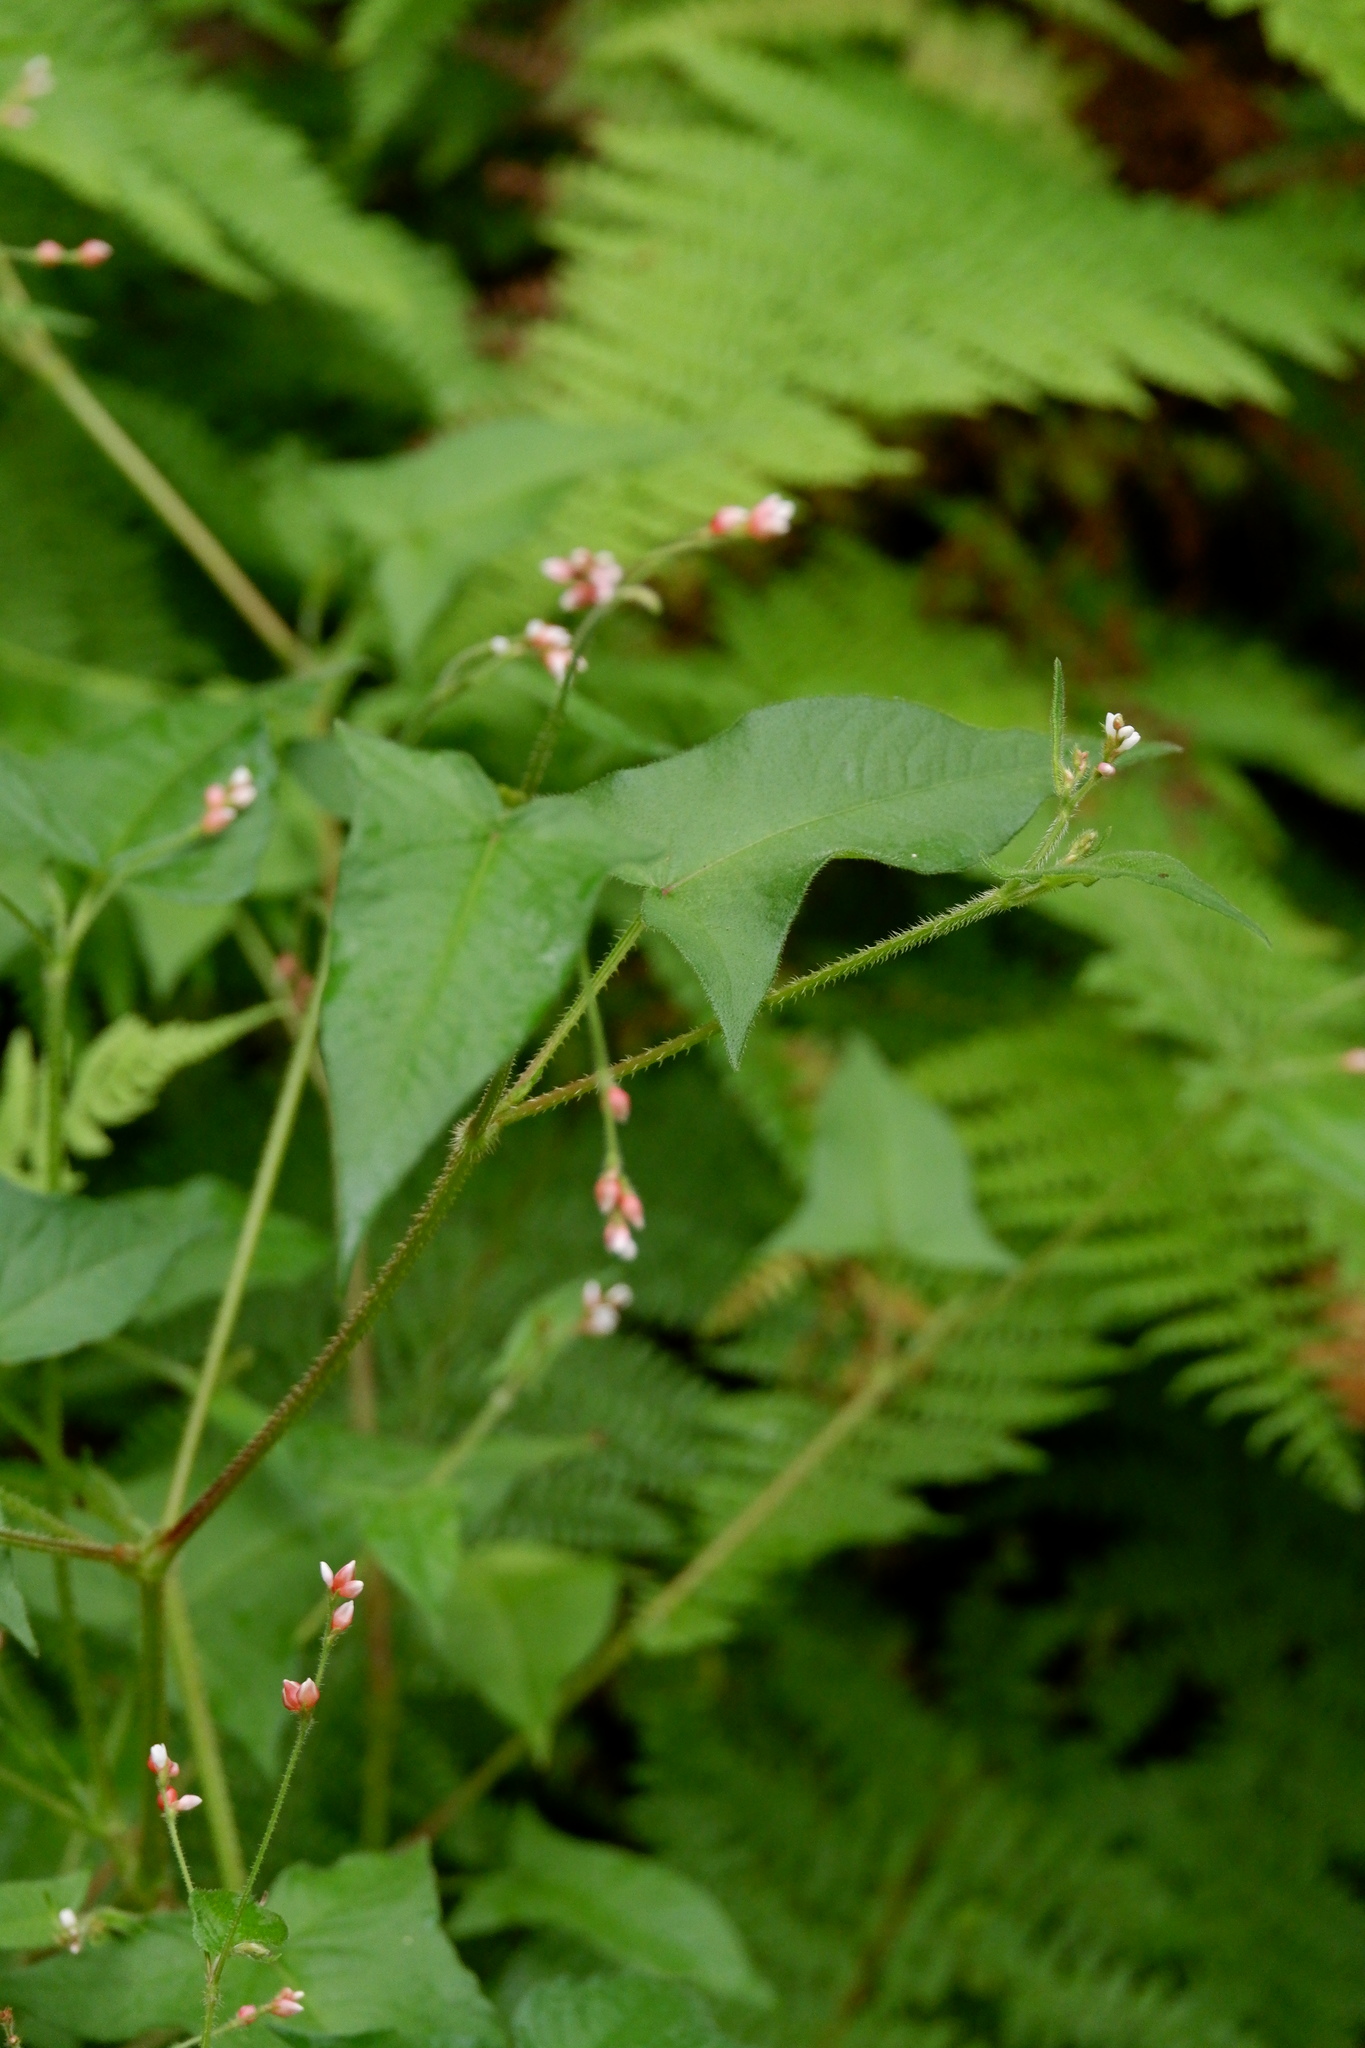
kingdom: Plantae
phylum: Tracheophyta
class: Magnoliopsida
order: Caryophyllales
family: Polygonaceae
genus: Persicaria
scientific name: Persicaria arifolia
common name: Halberd-leaved tear-thumb
